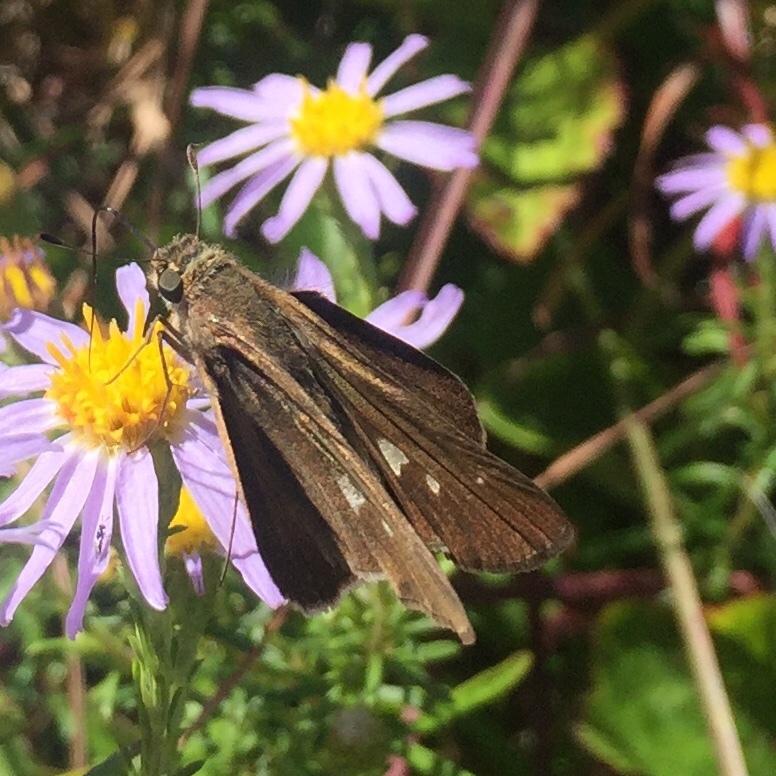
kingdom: Animalia
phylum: Arthropoda
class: Insecta
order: Lepidoptera
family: Hesperiidae
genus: Panoquina
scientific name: Panoquina ocola
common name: Ocola skipper
